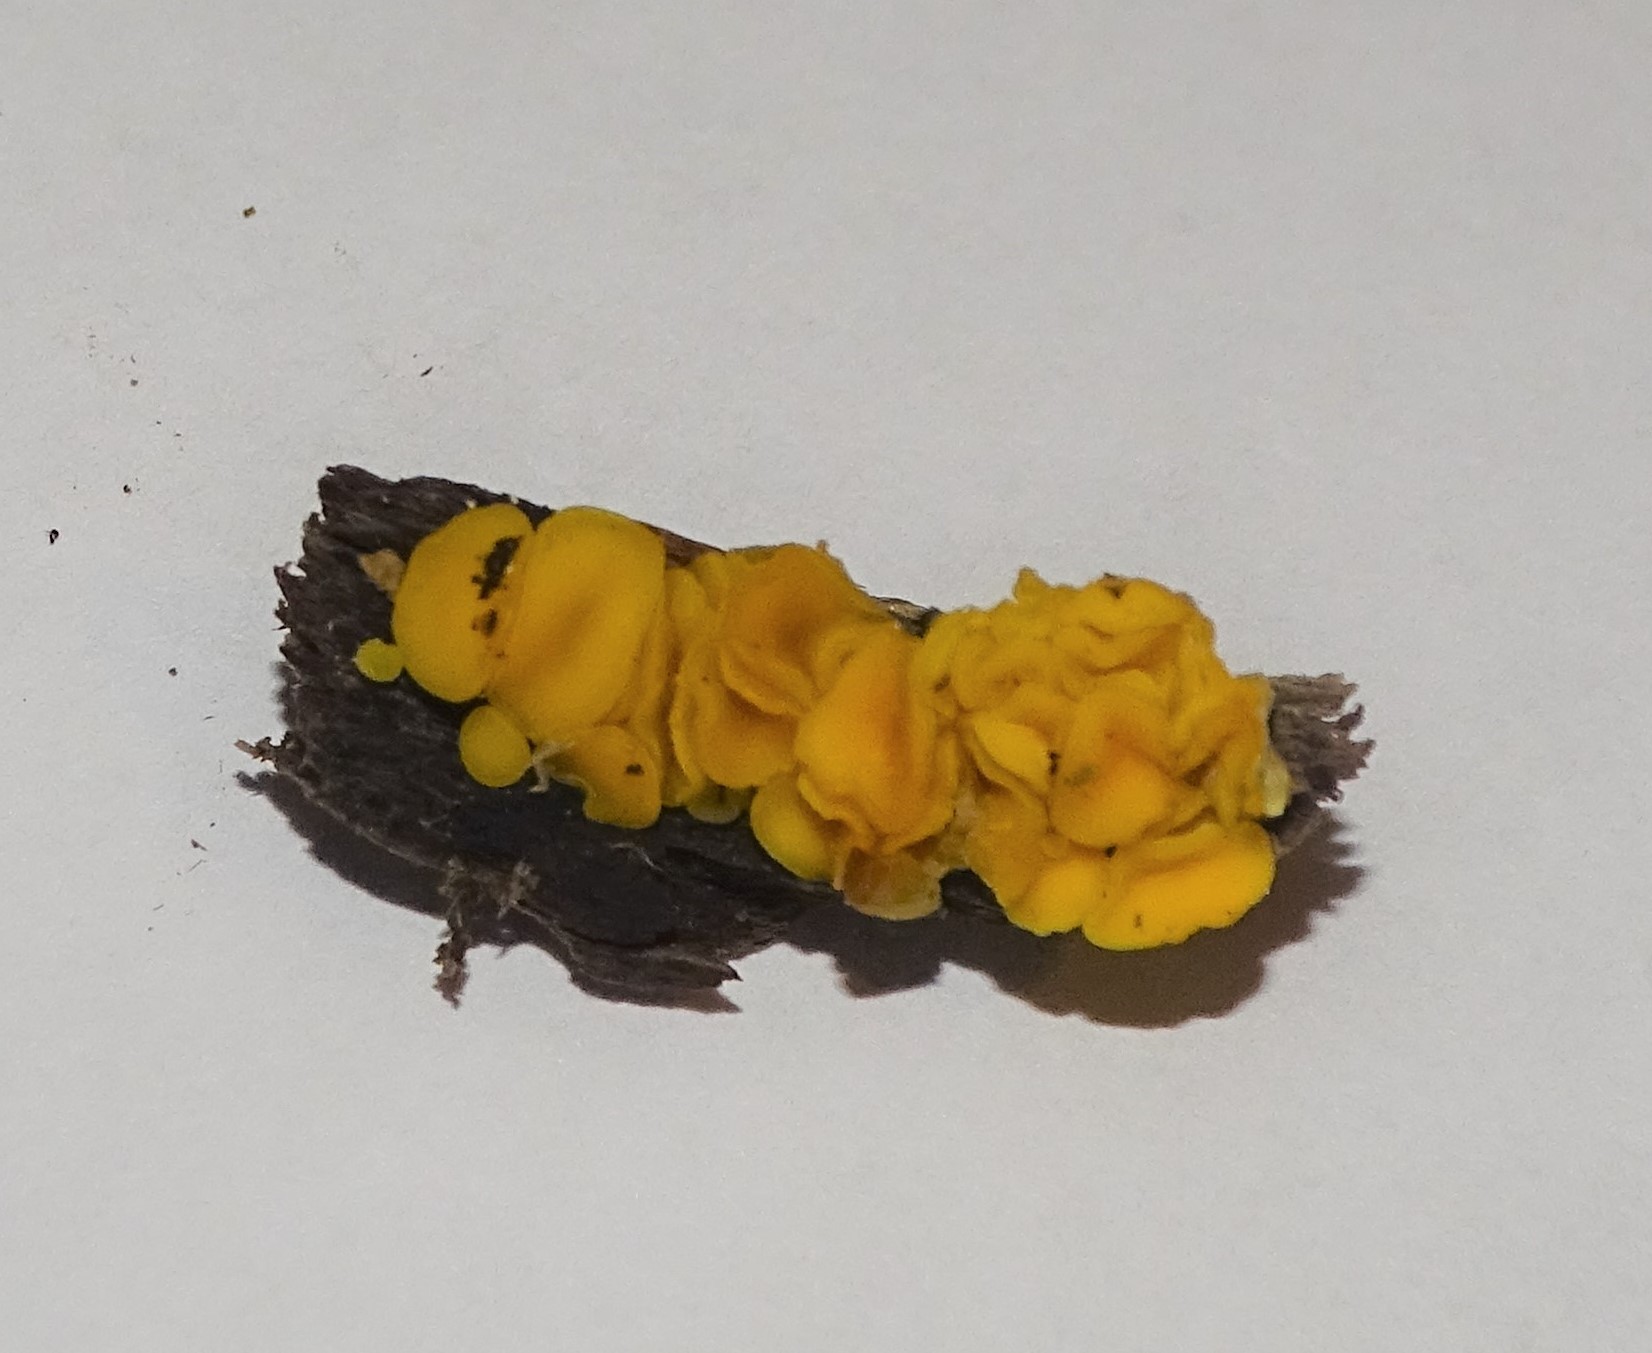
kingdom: Fungi
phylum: Ascomycota
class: Leotiomycetes
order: Helotiales
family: Pezizellaceae
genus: Calycina
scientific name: Calycina citrina
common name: Yellow fairy cups
